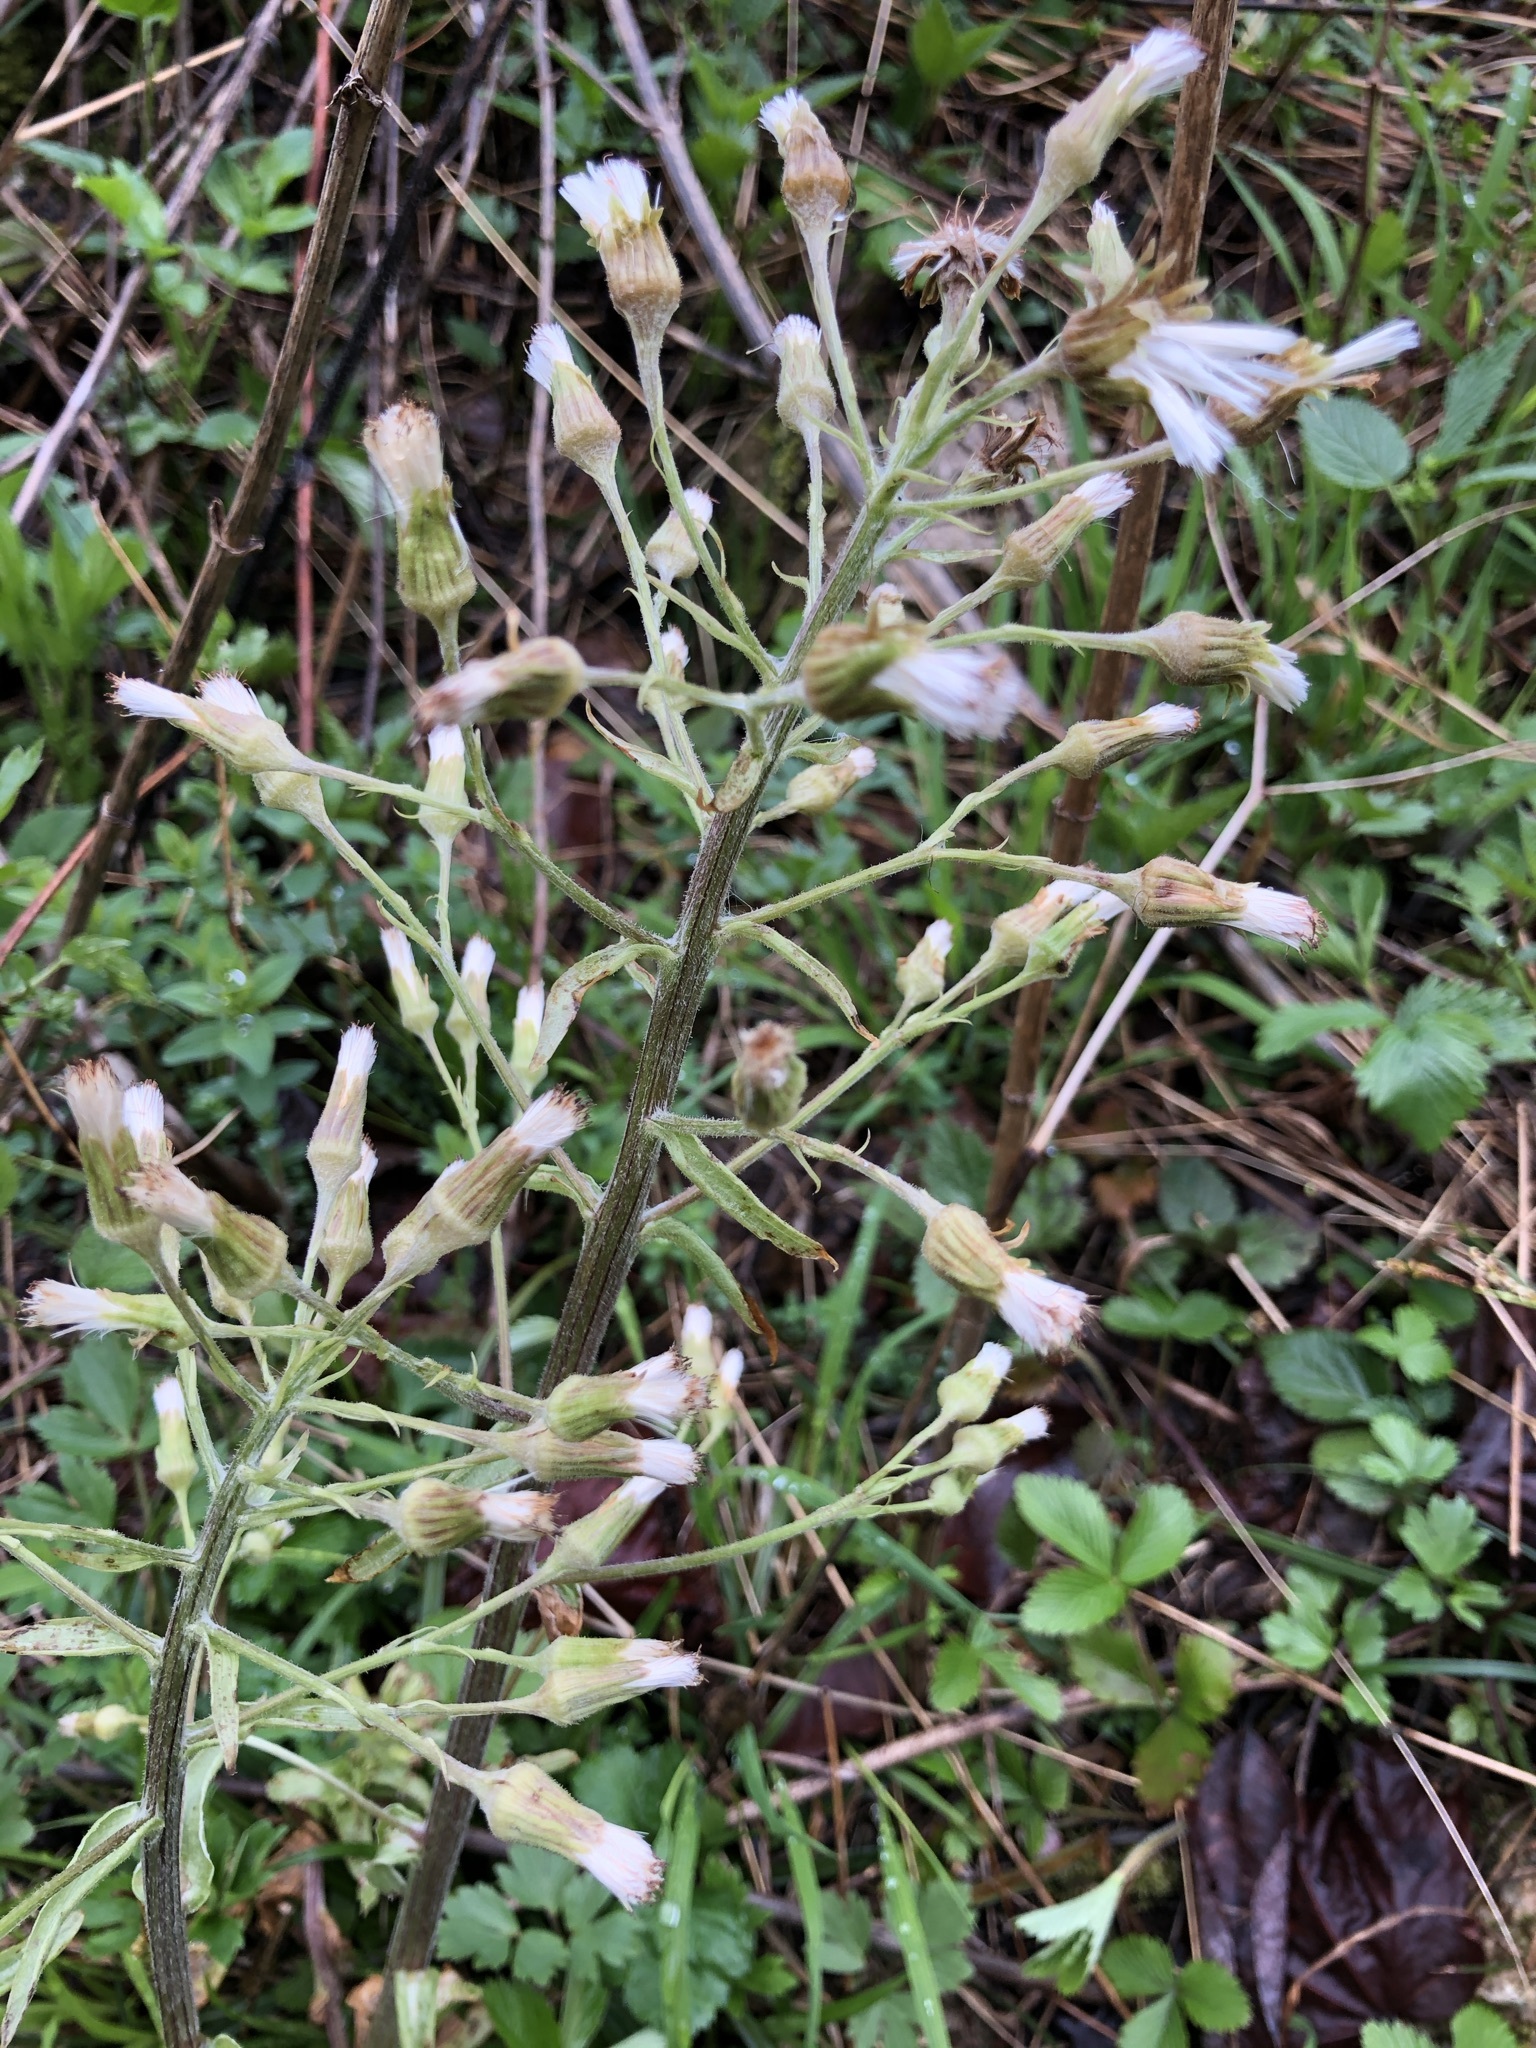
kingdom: Plantae
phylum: Tracheophyta
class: Magnoliopsida
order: Asterales
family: Asteraceae
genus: Petasites
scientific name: Petasites albus
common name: White butterbur
